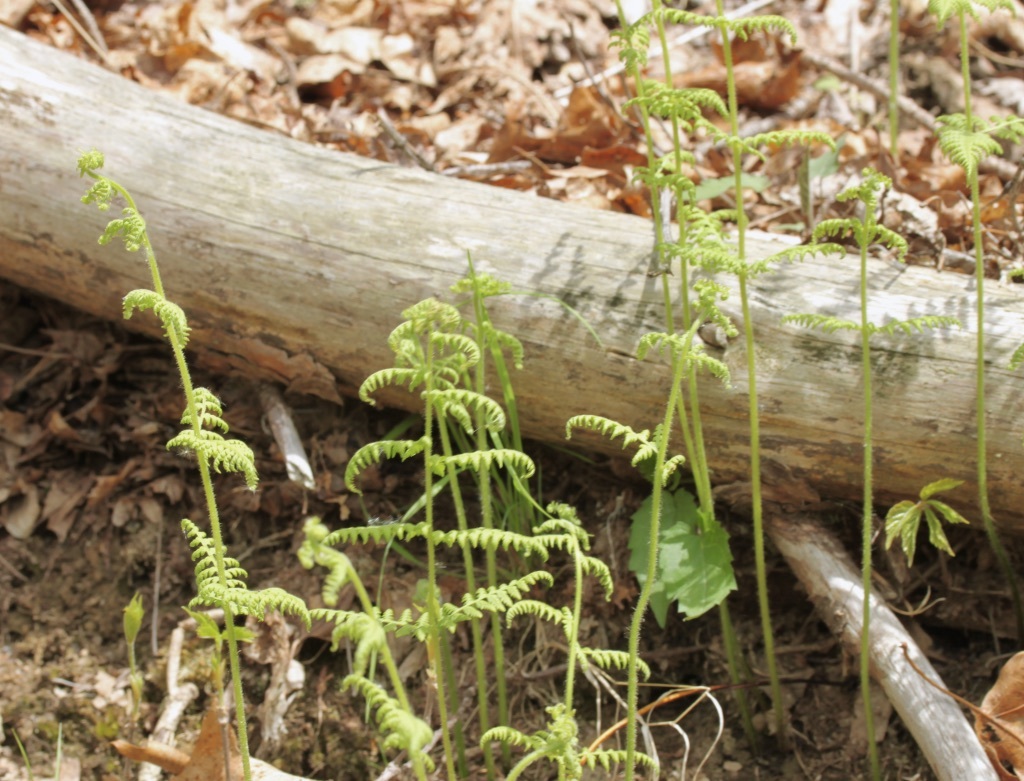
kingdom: Plantae
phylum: Tracheophyta
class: Polypodiopsida
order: Polypodiales
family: Dennstaedtiaceae
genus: Sitobolium
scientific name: Sitobolium punctilobum
